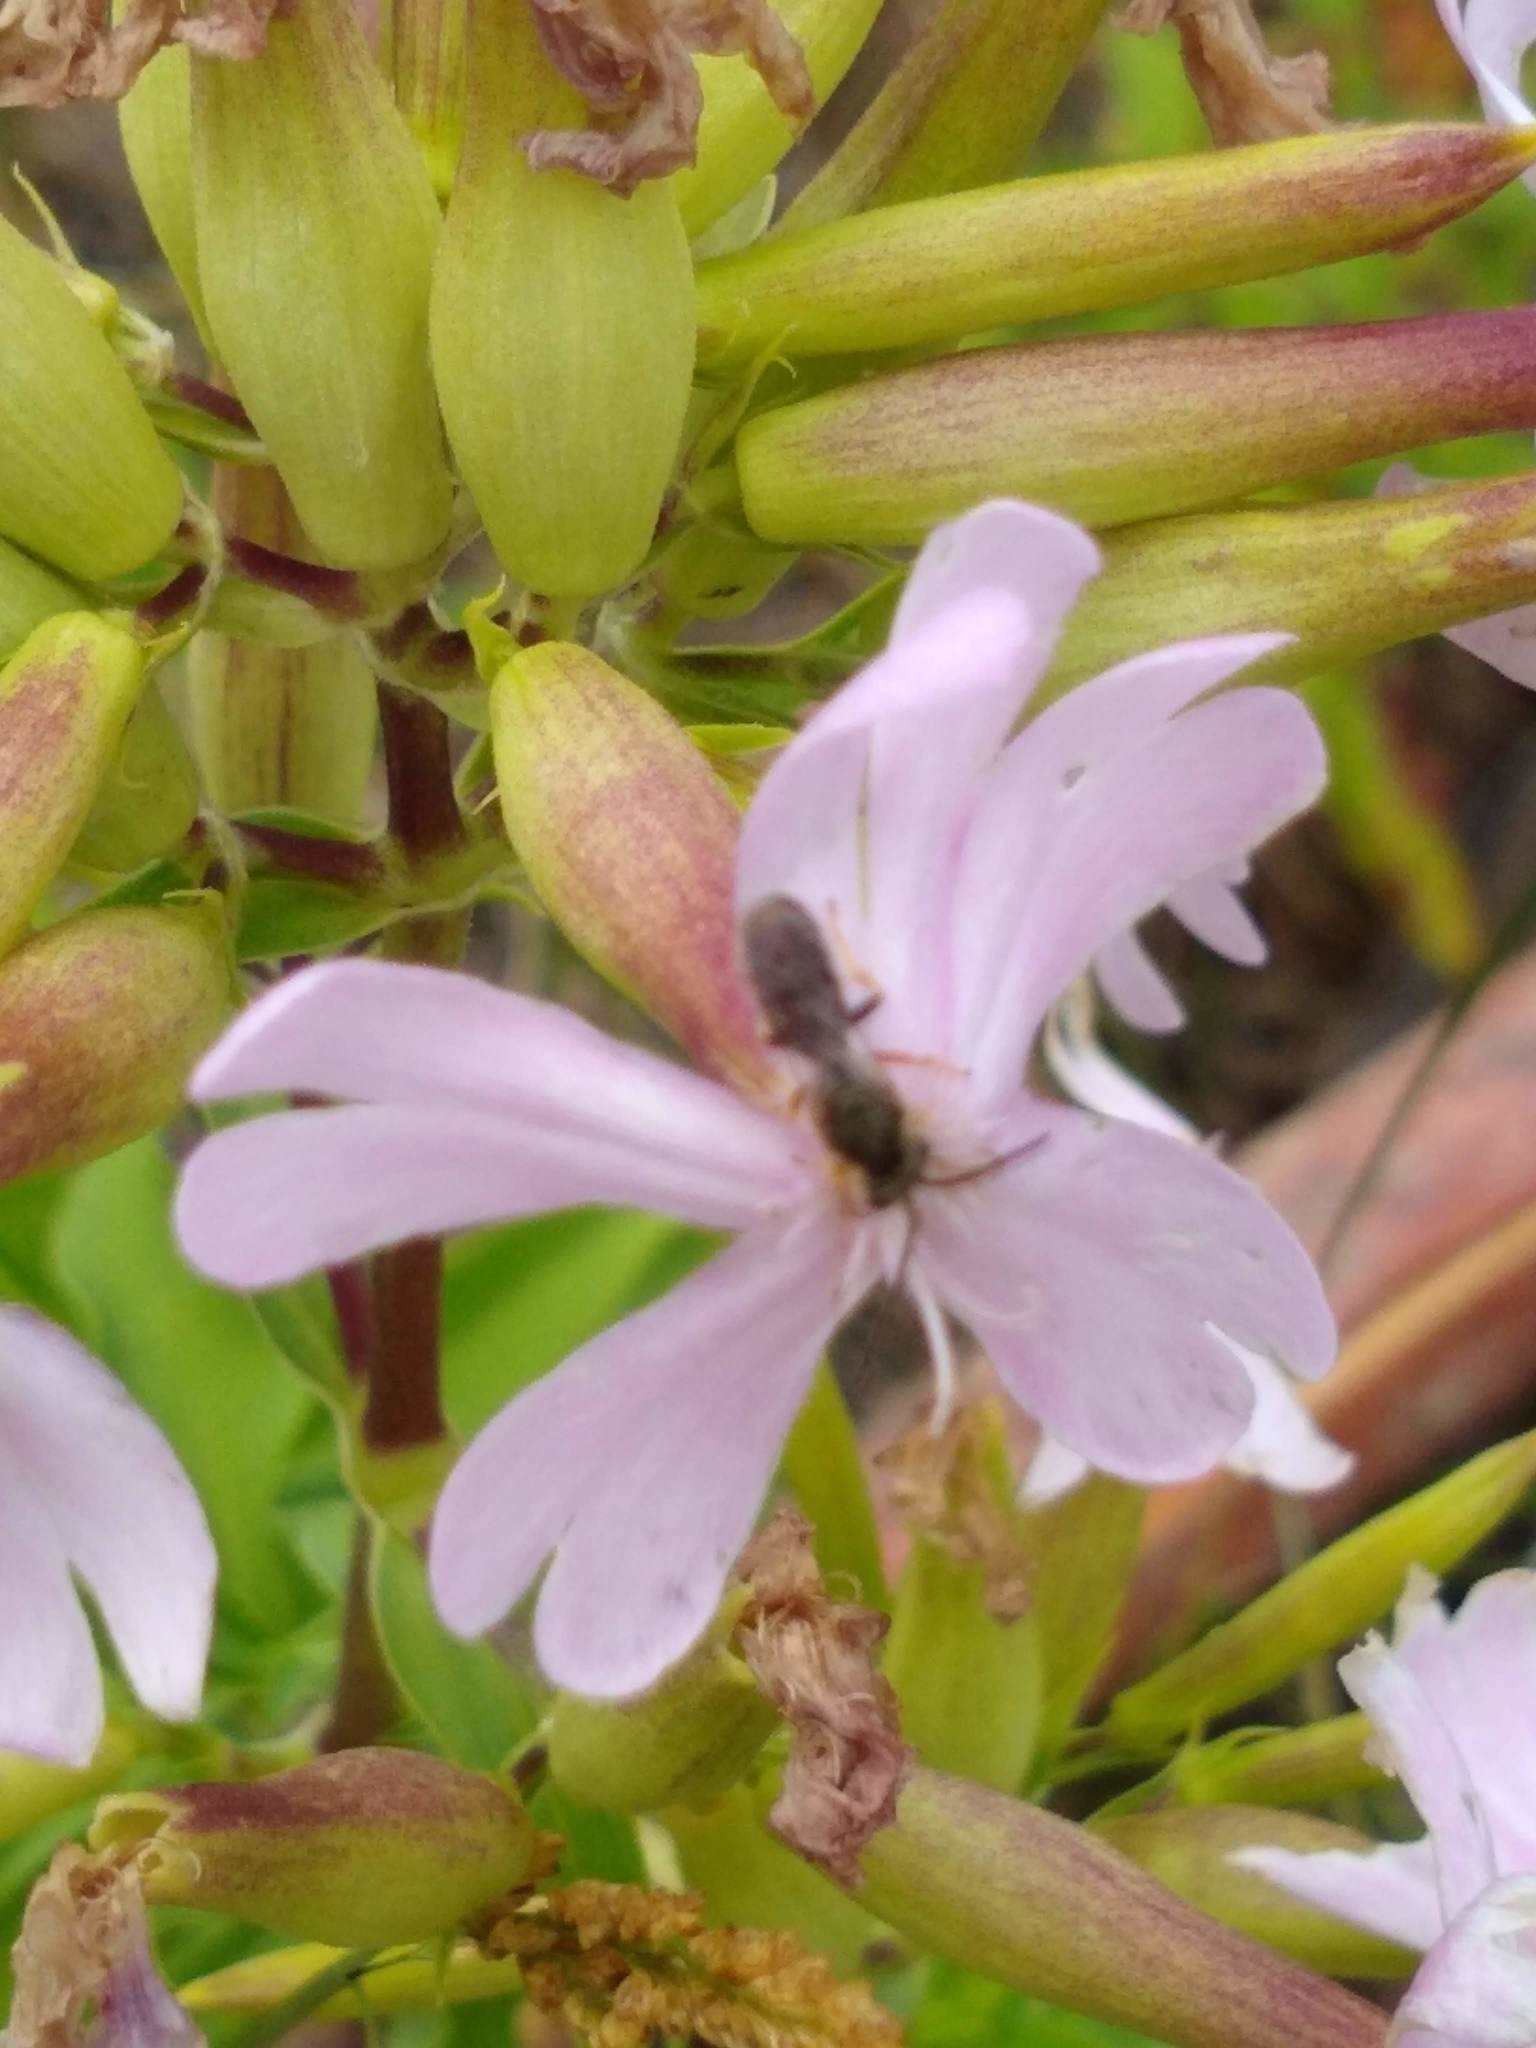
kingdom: Animalia
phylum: Arthropoda
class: Insecta
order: Hymenoptera
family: Halictidae
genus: Dialictus
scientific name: Dialictus
